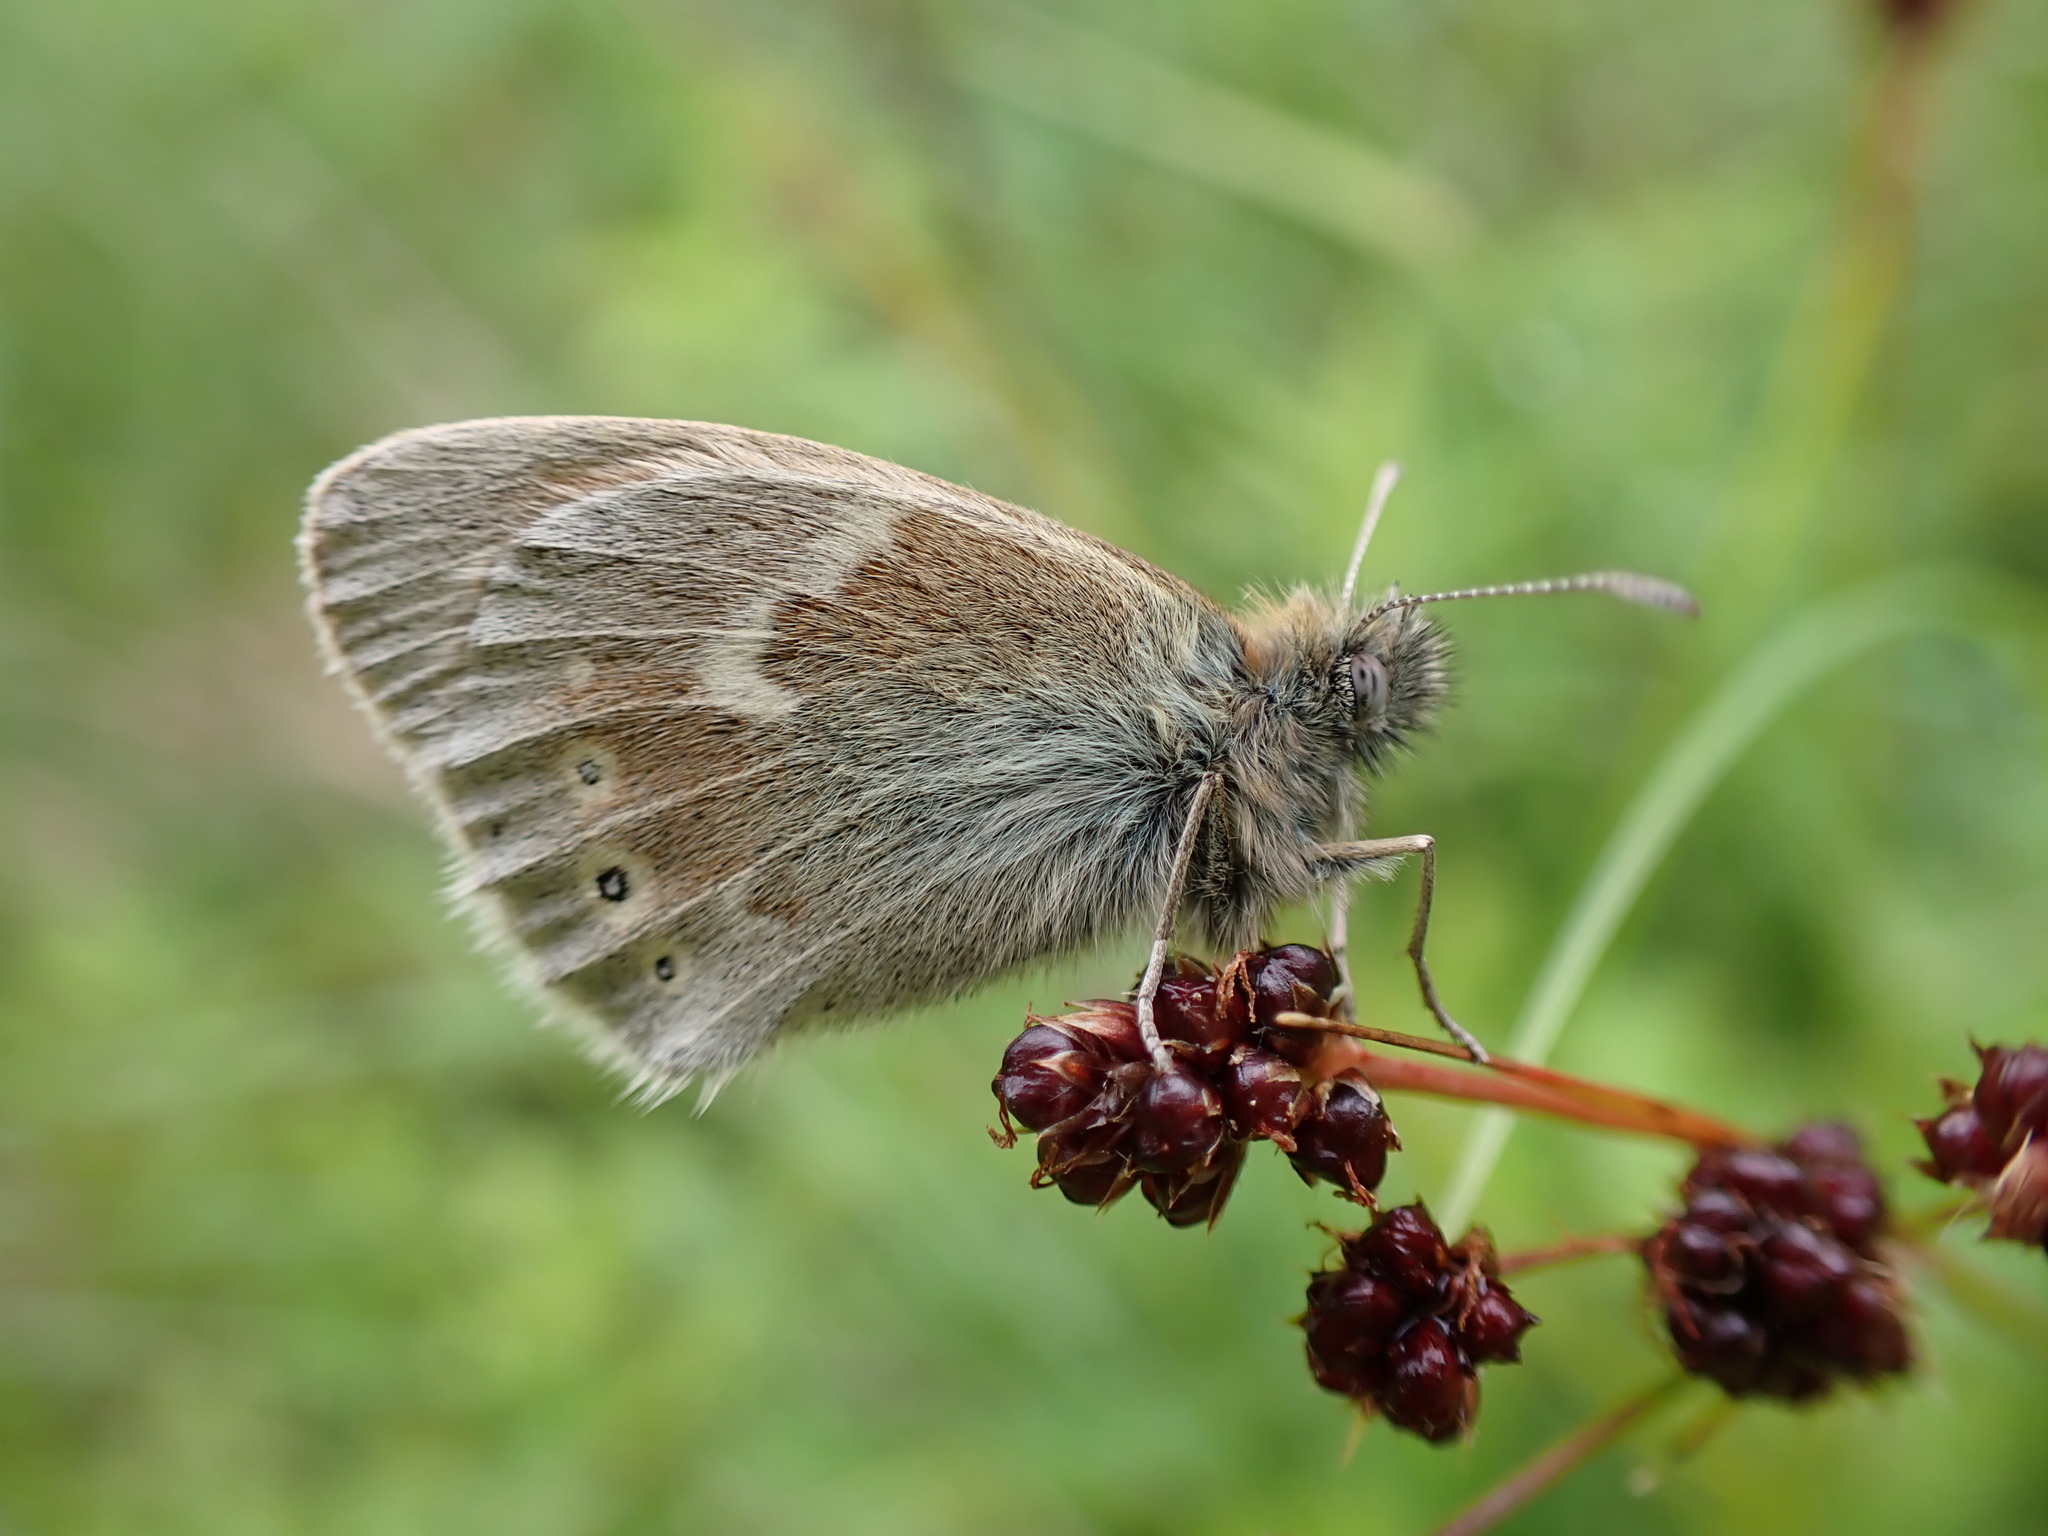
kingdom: Animalia
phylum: Arthropoda
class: Insecta
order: Lepidoptera
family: Nymphalidae
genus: Coenonympha
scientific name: Coenonympha tullia
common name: Large heath
